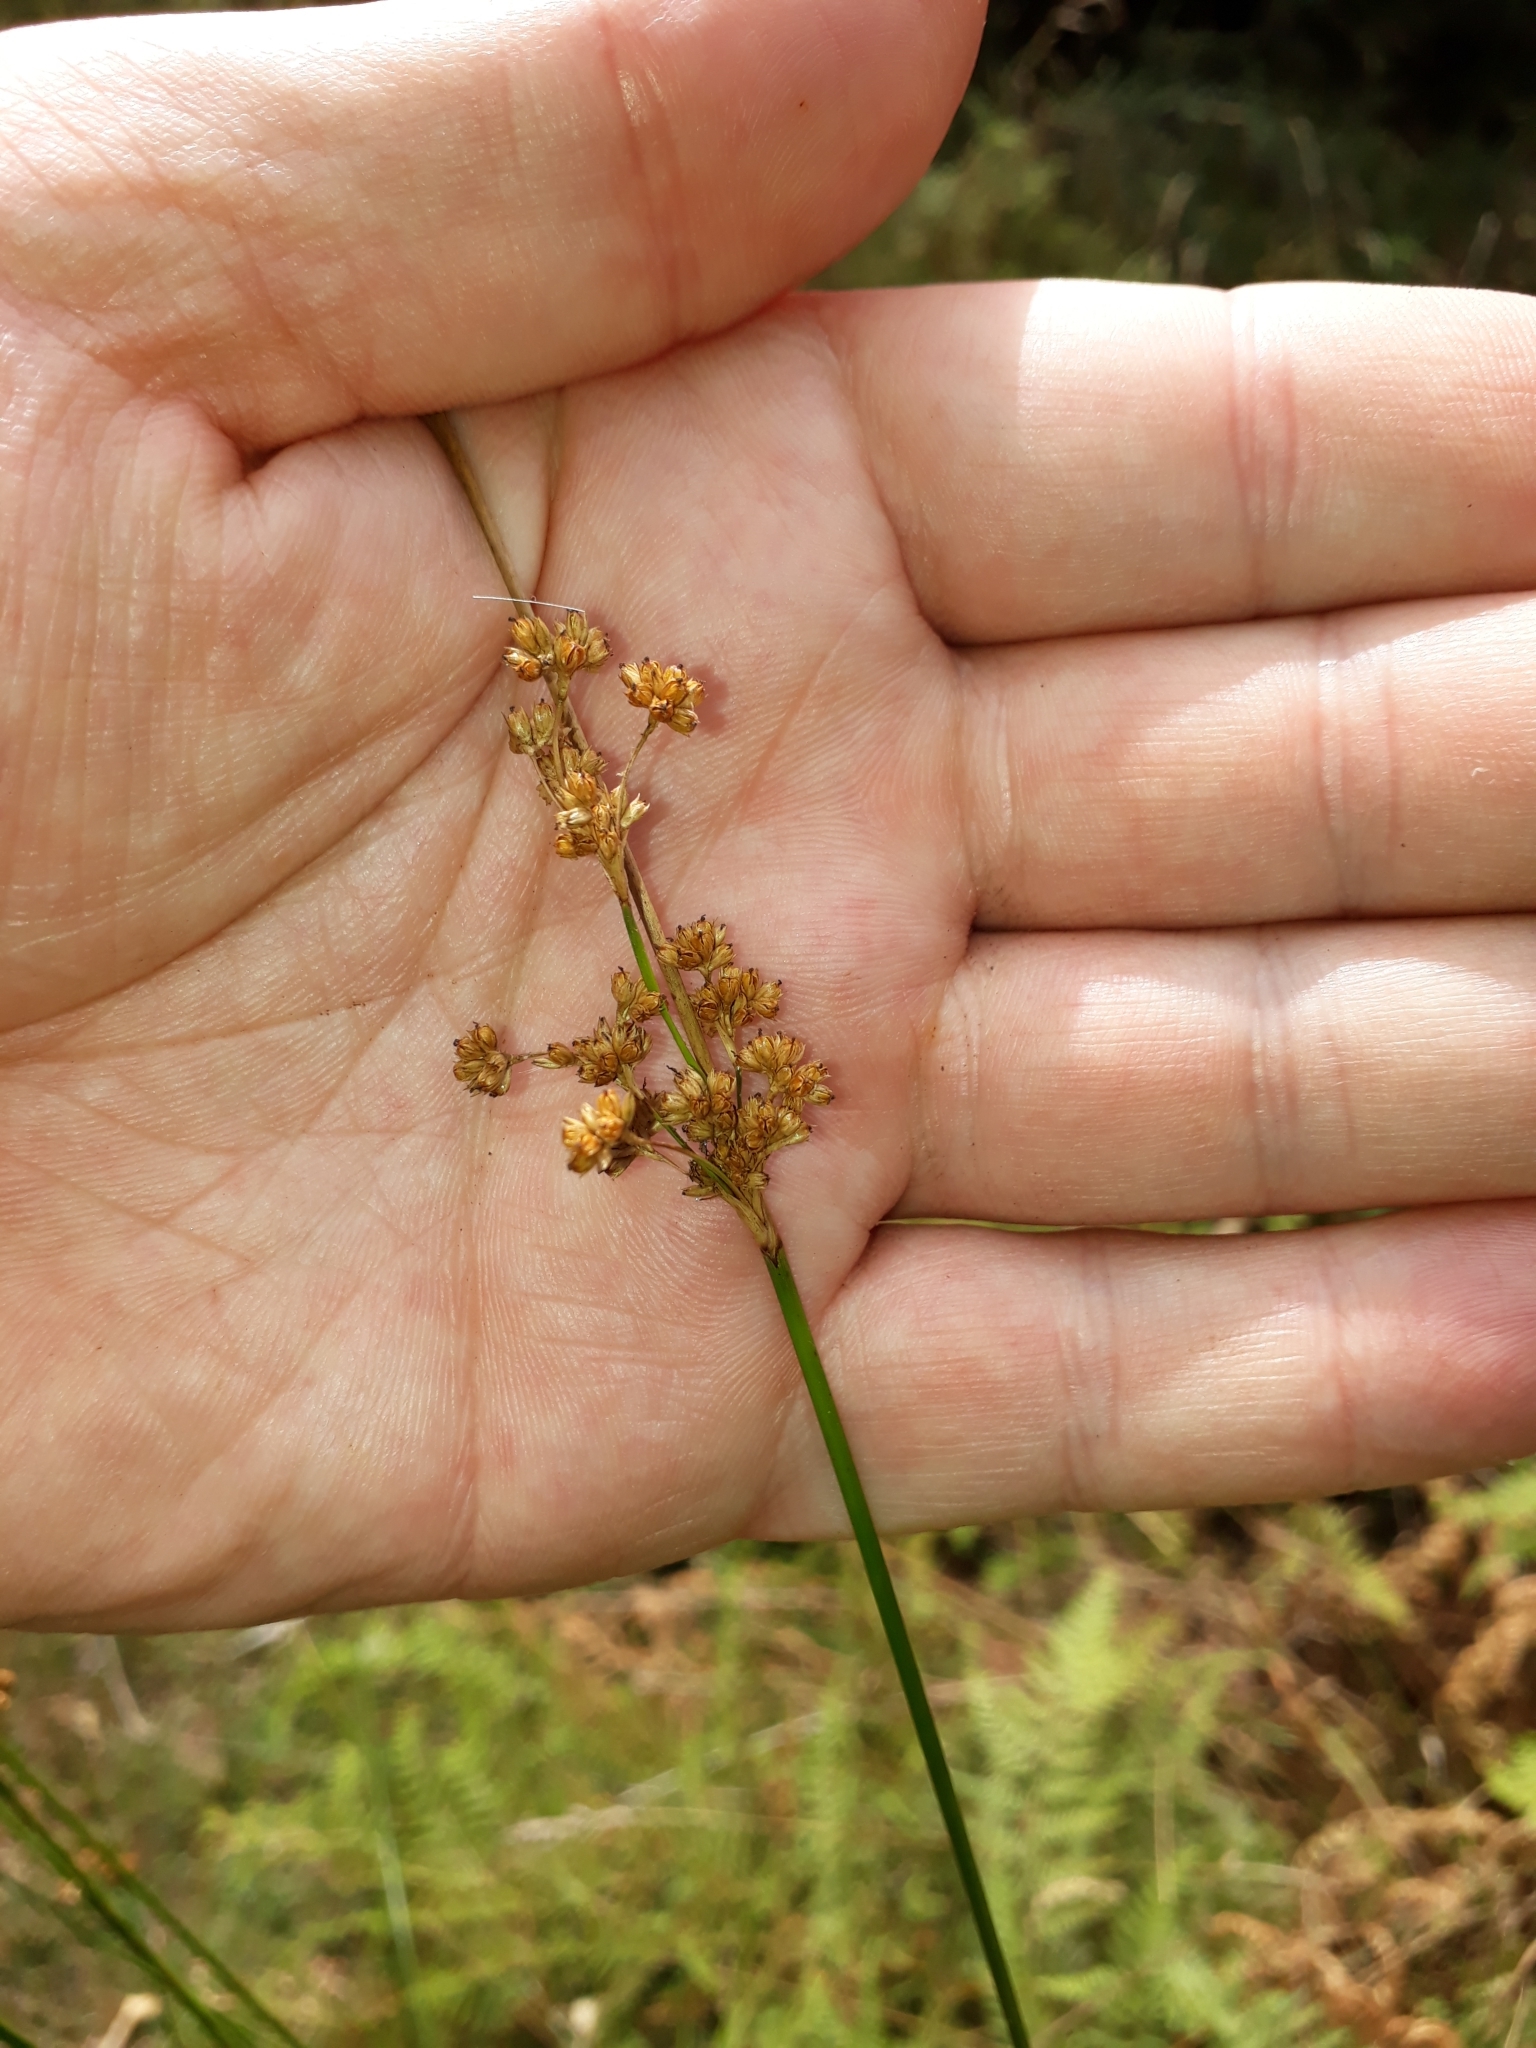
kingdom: Plantae
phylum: Tracheophyta
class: Liliopsida
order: Poales
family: Juncaceae
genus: Juncus
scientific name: Juncus edgariae
